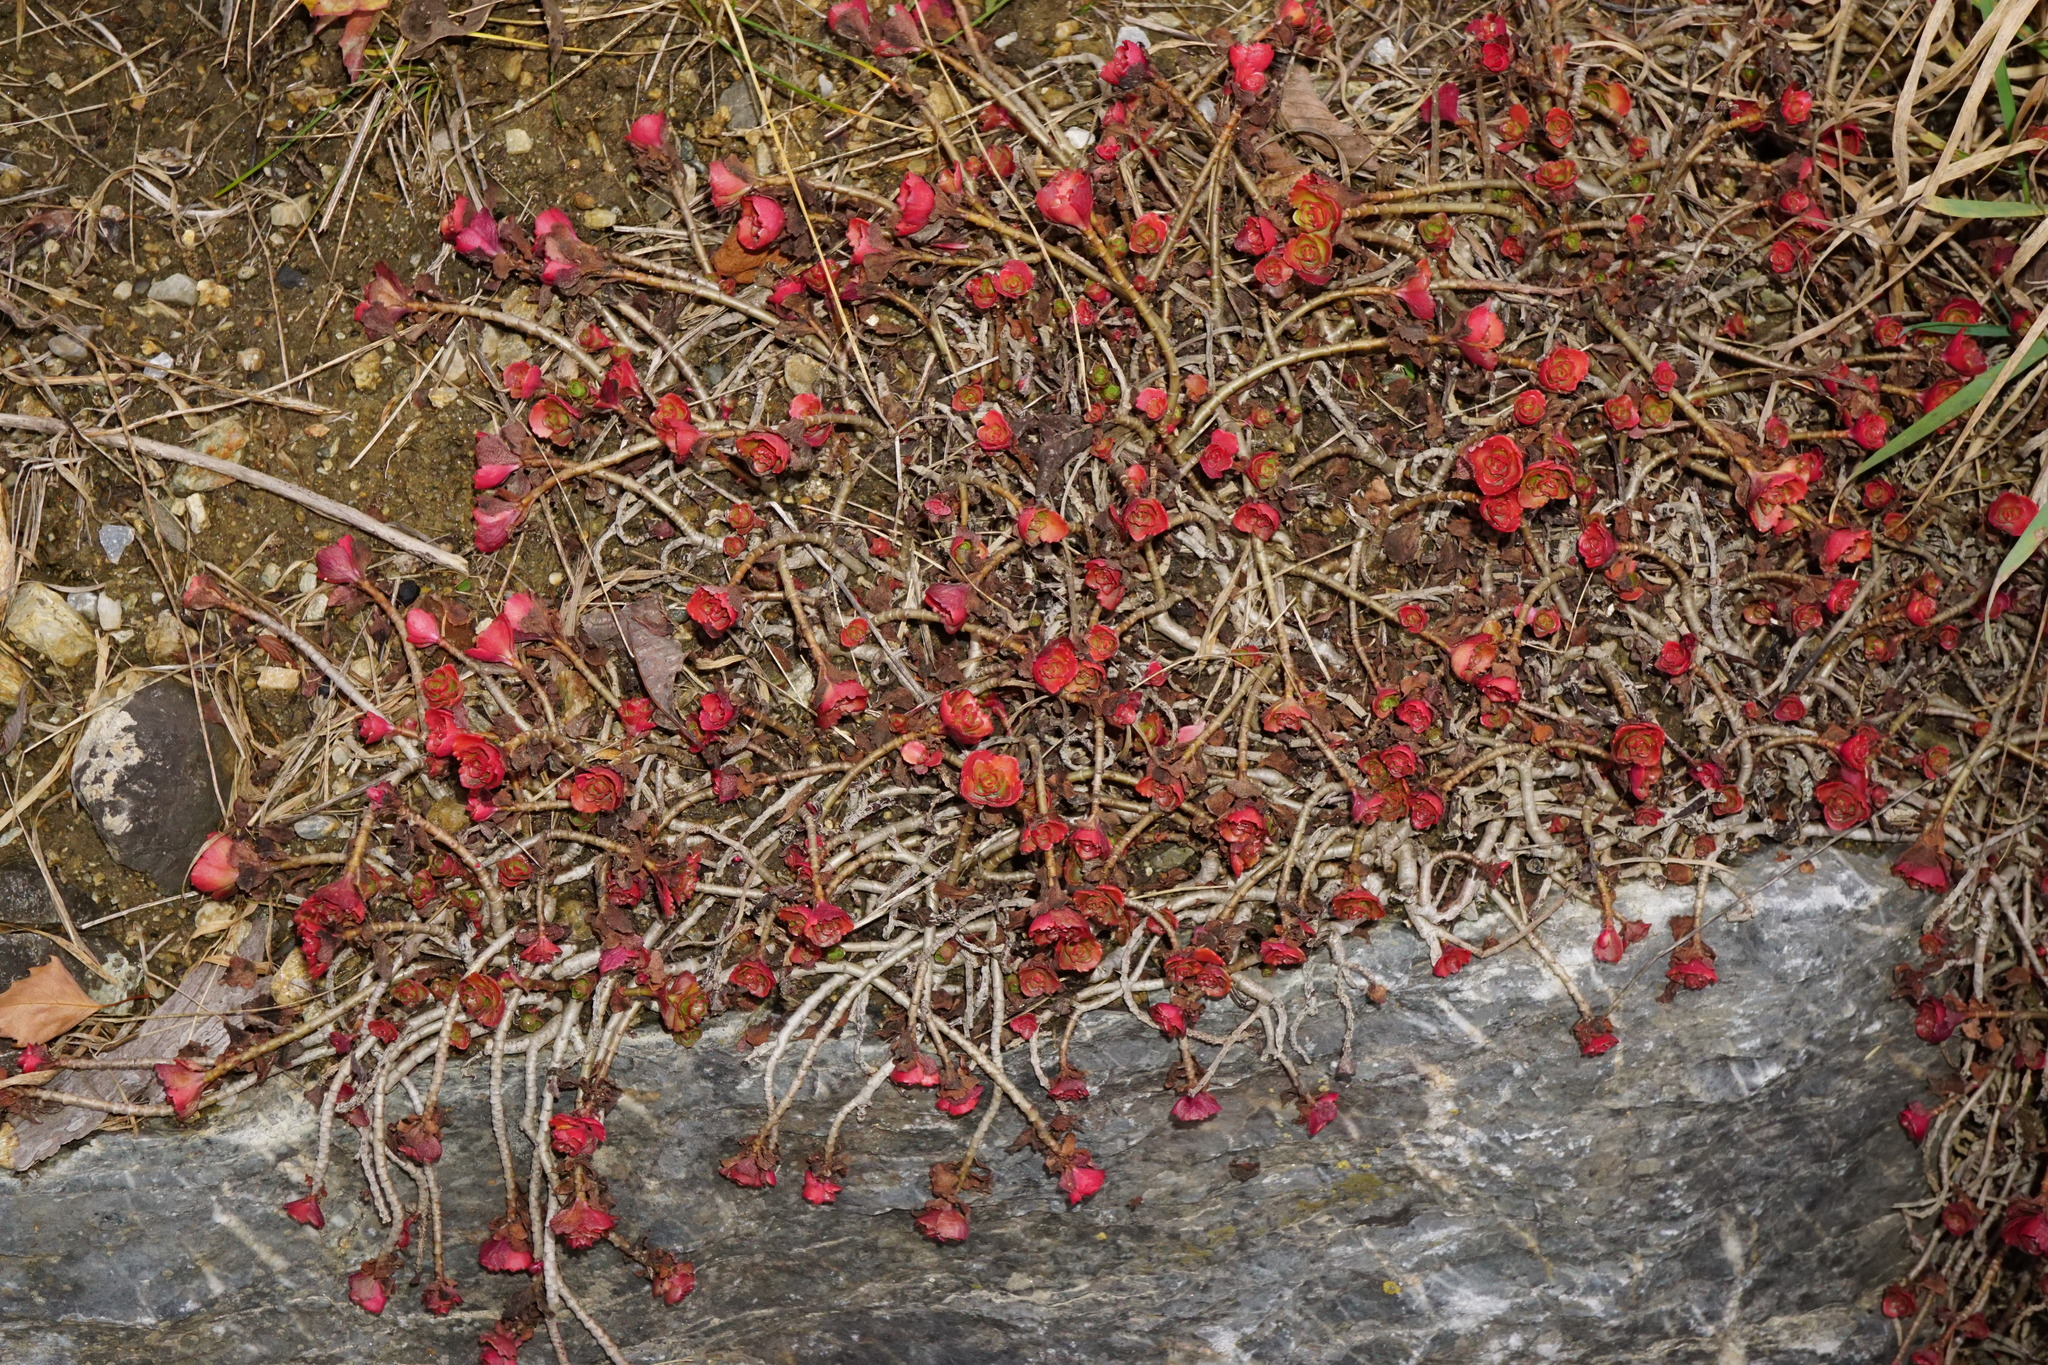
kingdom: Plantae
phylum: Tracheophyta
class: Magnoliopsida
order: Saxifragales
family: Crassulaceae
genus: Phedimus
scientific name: Phedimus spurius
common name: Caucasian stonecrop
